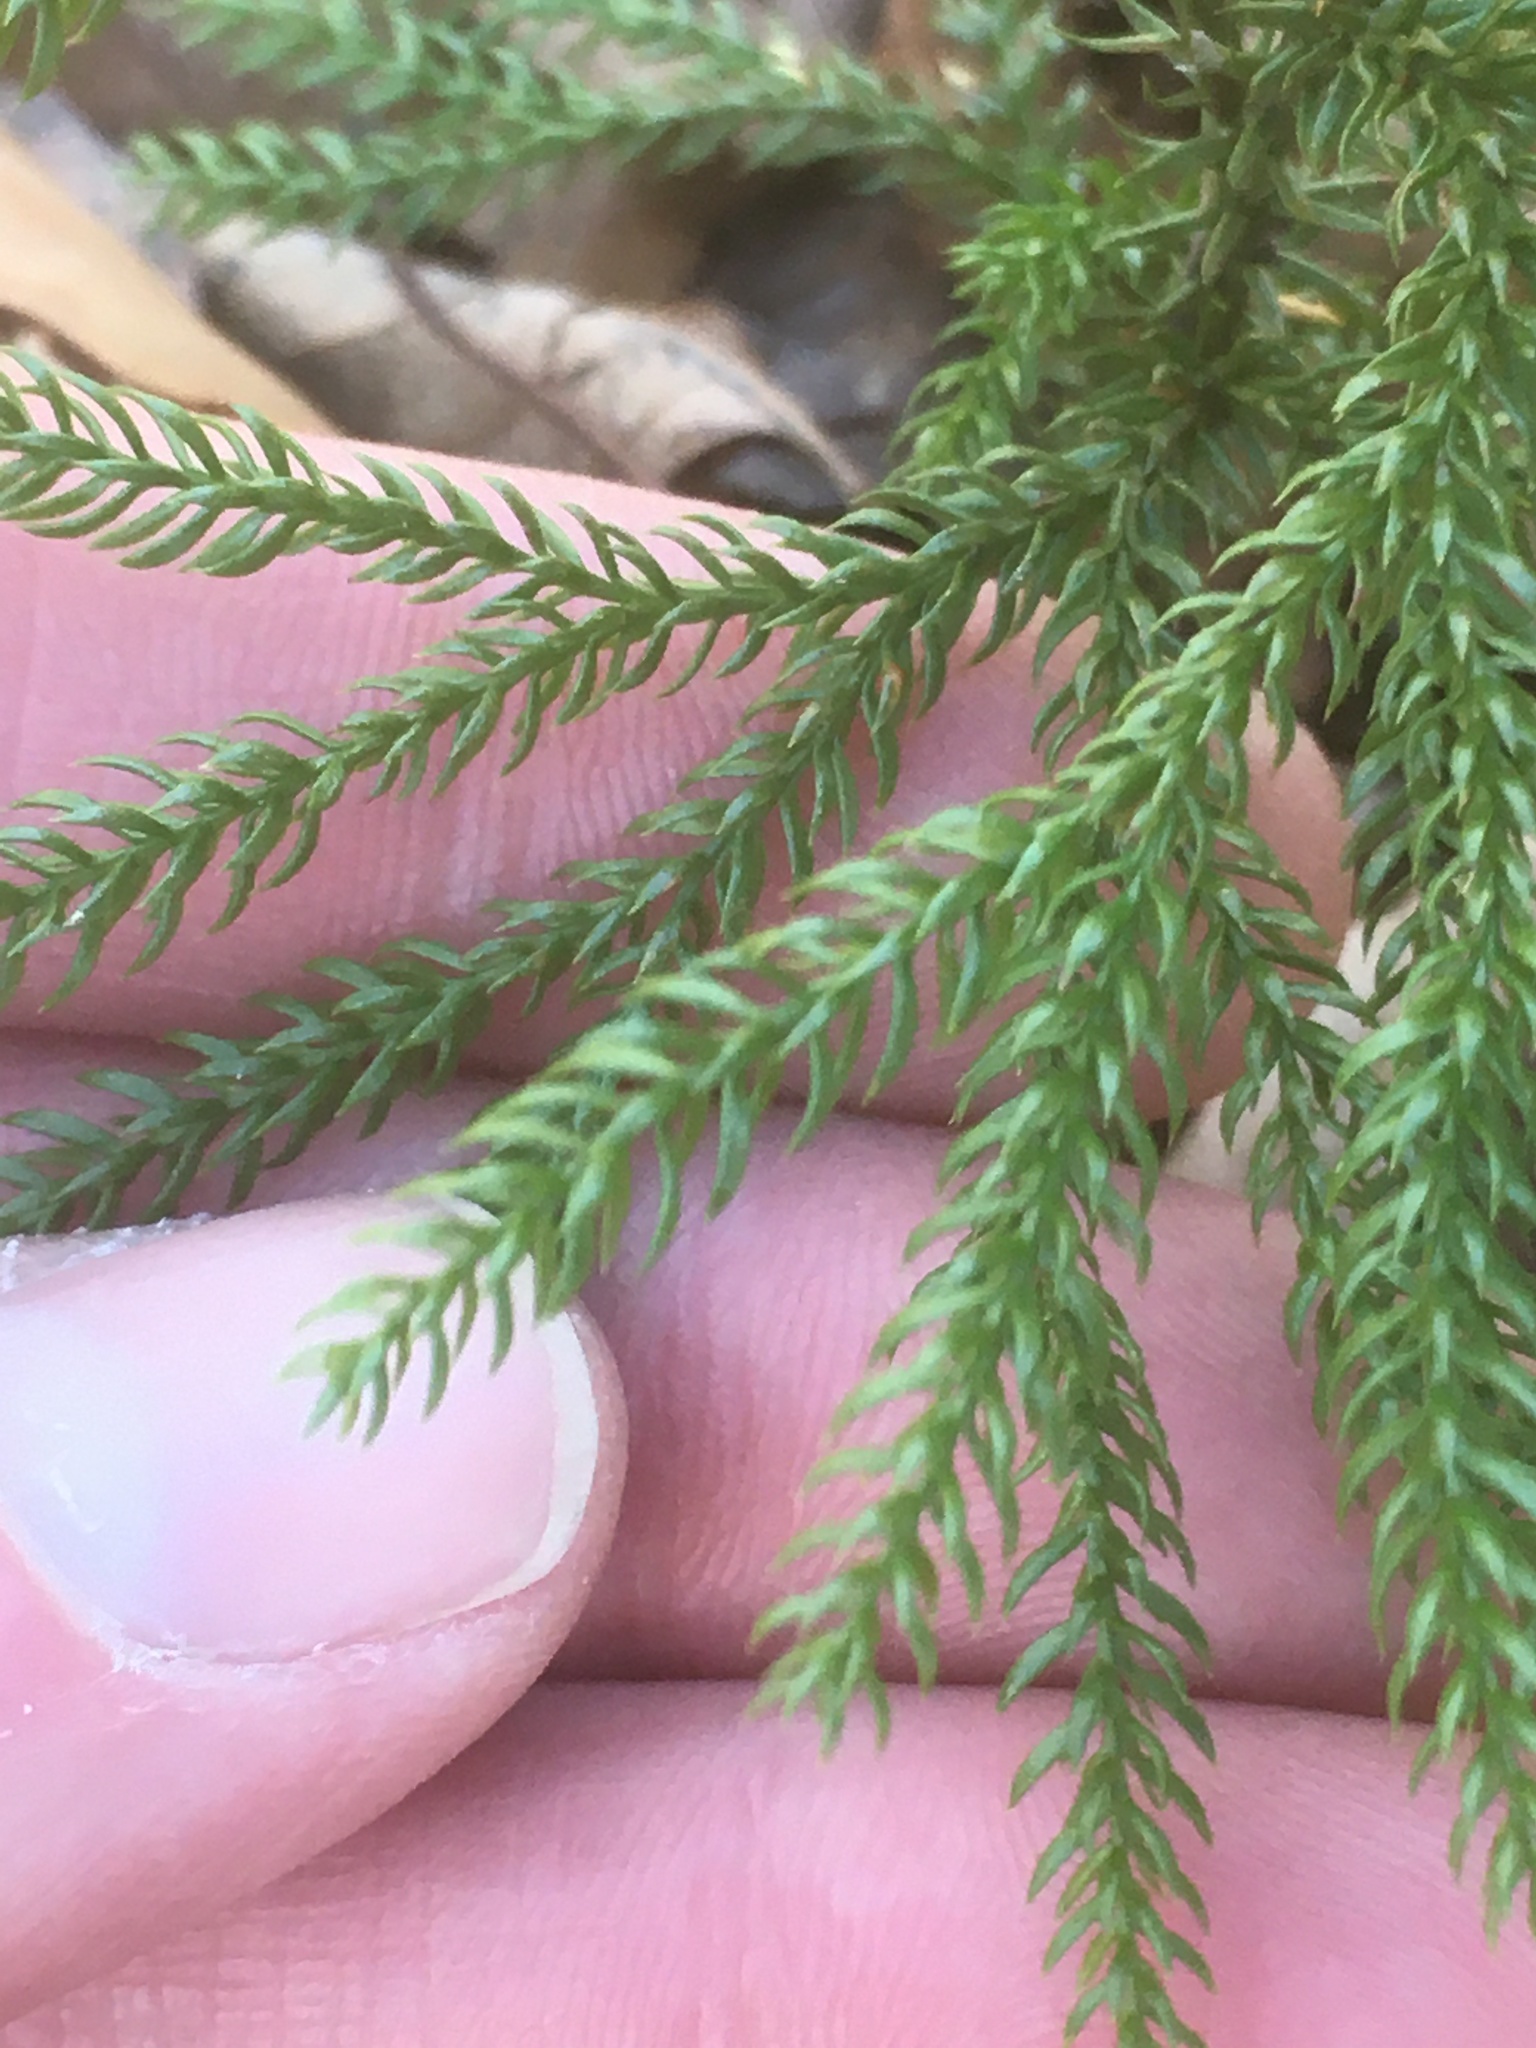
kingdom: Plantae
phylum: Tracheophyta
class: Lycopodiopsida
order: Lycopodiales
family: Lycopodiaceae
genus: Dendrolycopodium
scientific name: Dendrolycopodium dendroideum
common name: Northern tree-clubmoss
